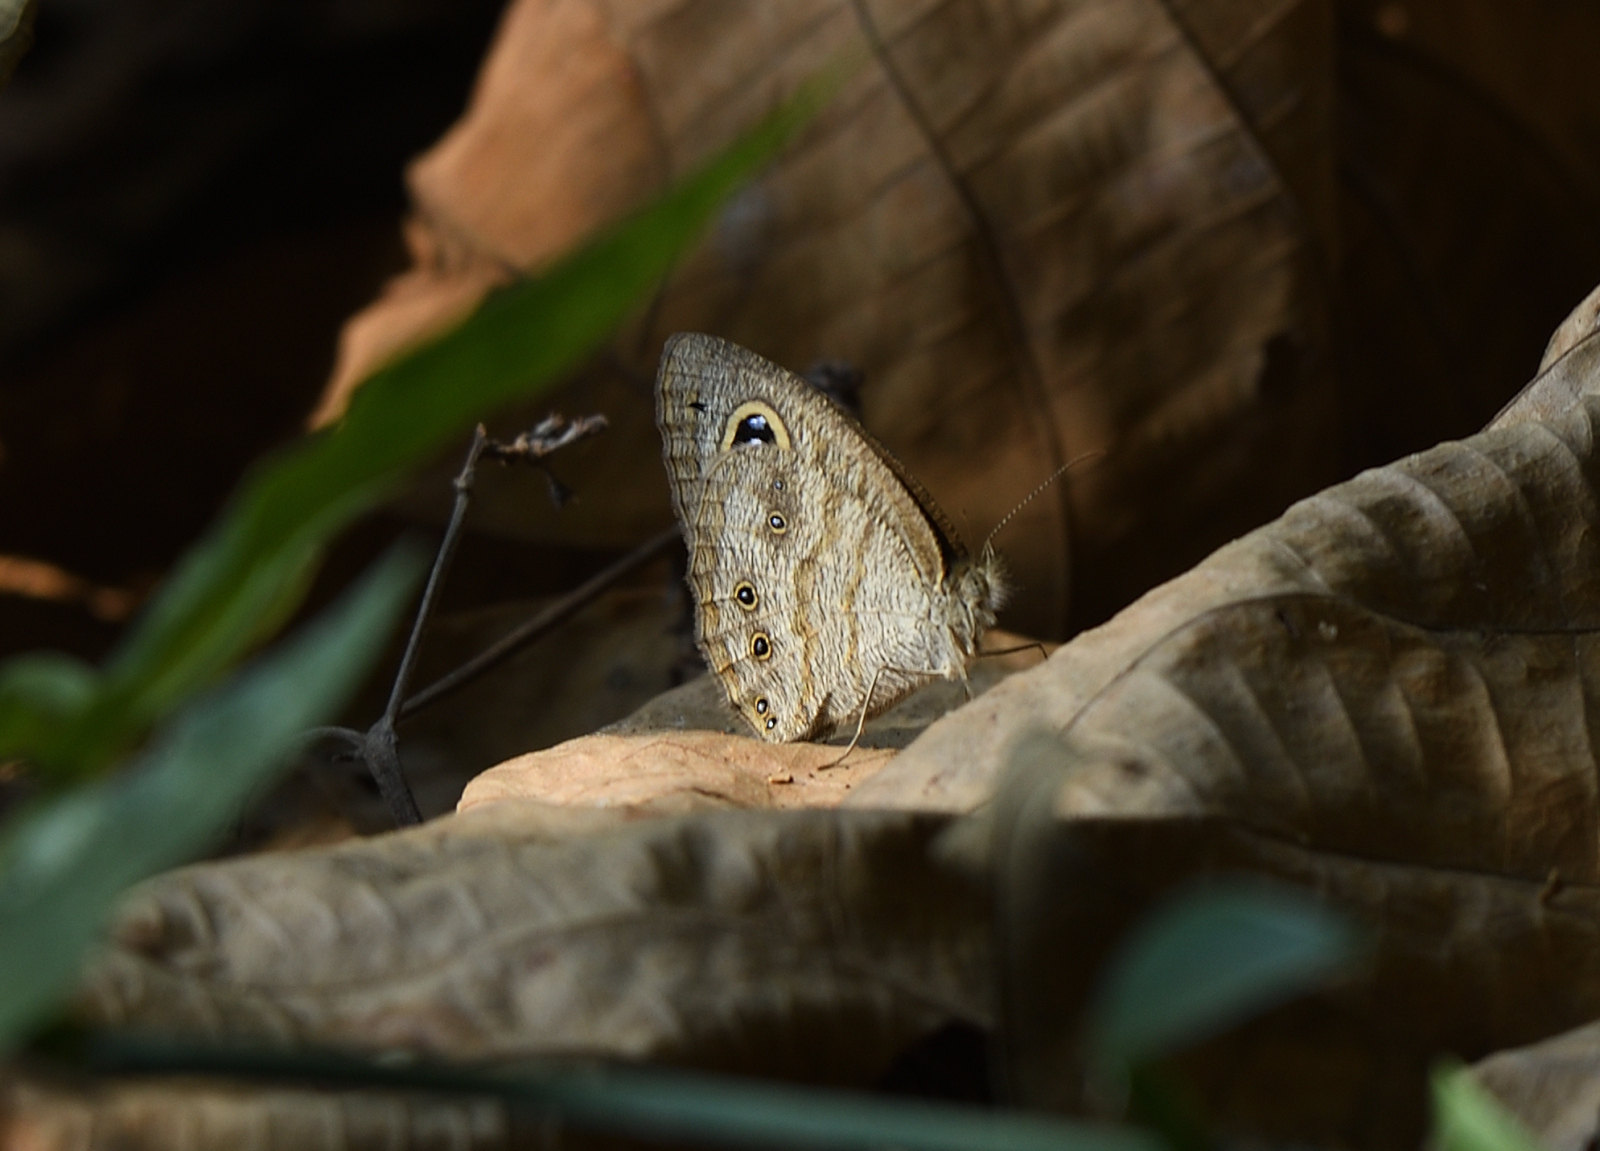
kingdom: Animalia
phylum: Arthropoda
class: Insecta
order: Lepidoptera
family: Nymphalidae
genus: Ypthima
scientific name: Ypthima baldus
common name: Common five-ring
